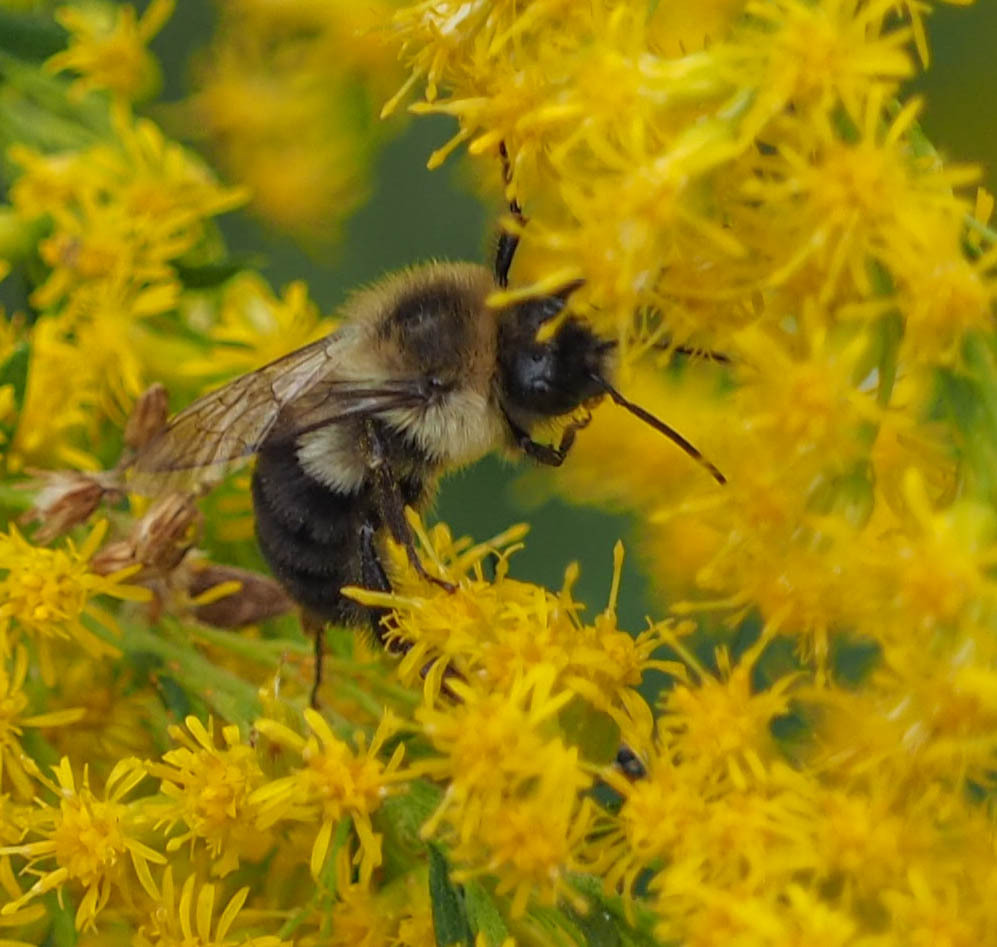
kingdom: Animalia
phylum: Arthropoda
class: Insecta
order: Hymenoptera
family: Apidae
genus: Bombus
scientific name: Bombus impatiens
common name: Common eastern bumble bee
